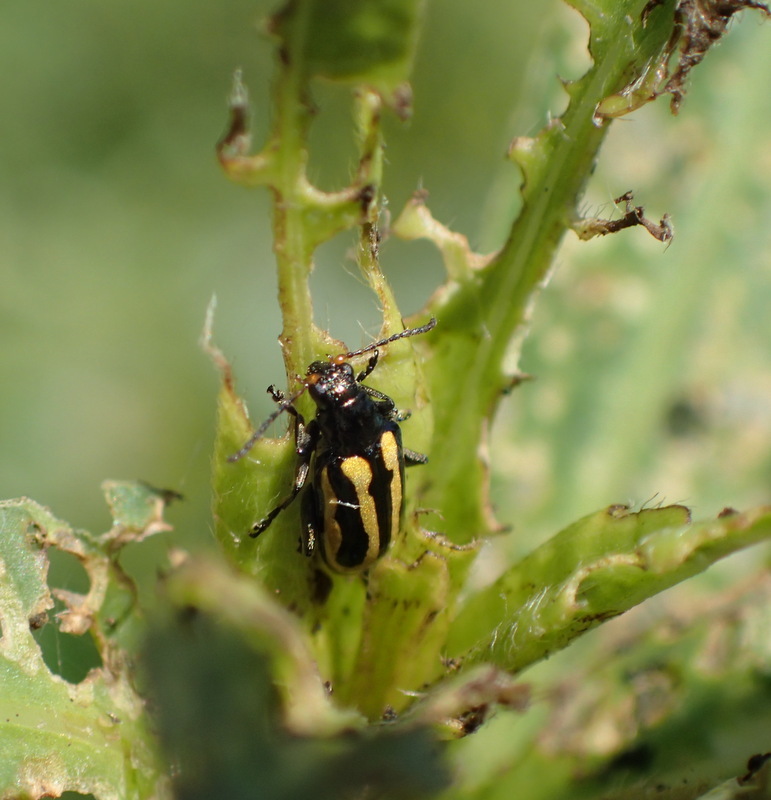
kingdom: Animalia
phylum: Arthropoda
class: Insecta
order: Coleoptera
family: Chrysomelidae
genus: Agasicles
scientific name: Agasicles hygrophila
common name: Alligatorweed flea beetle
